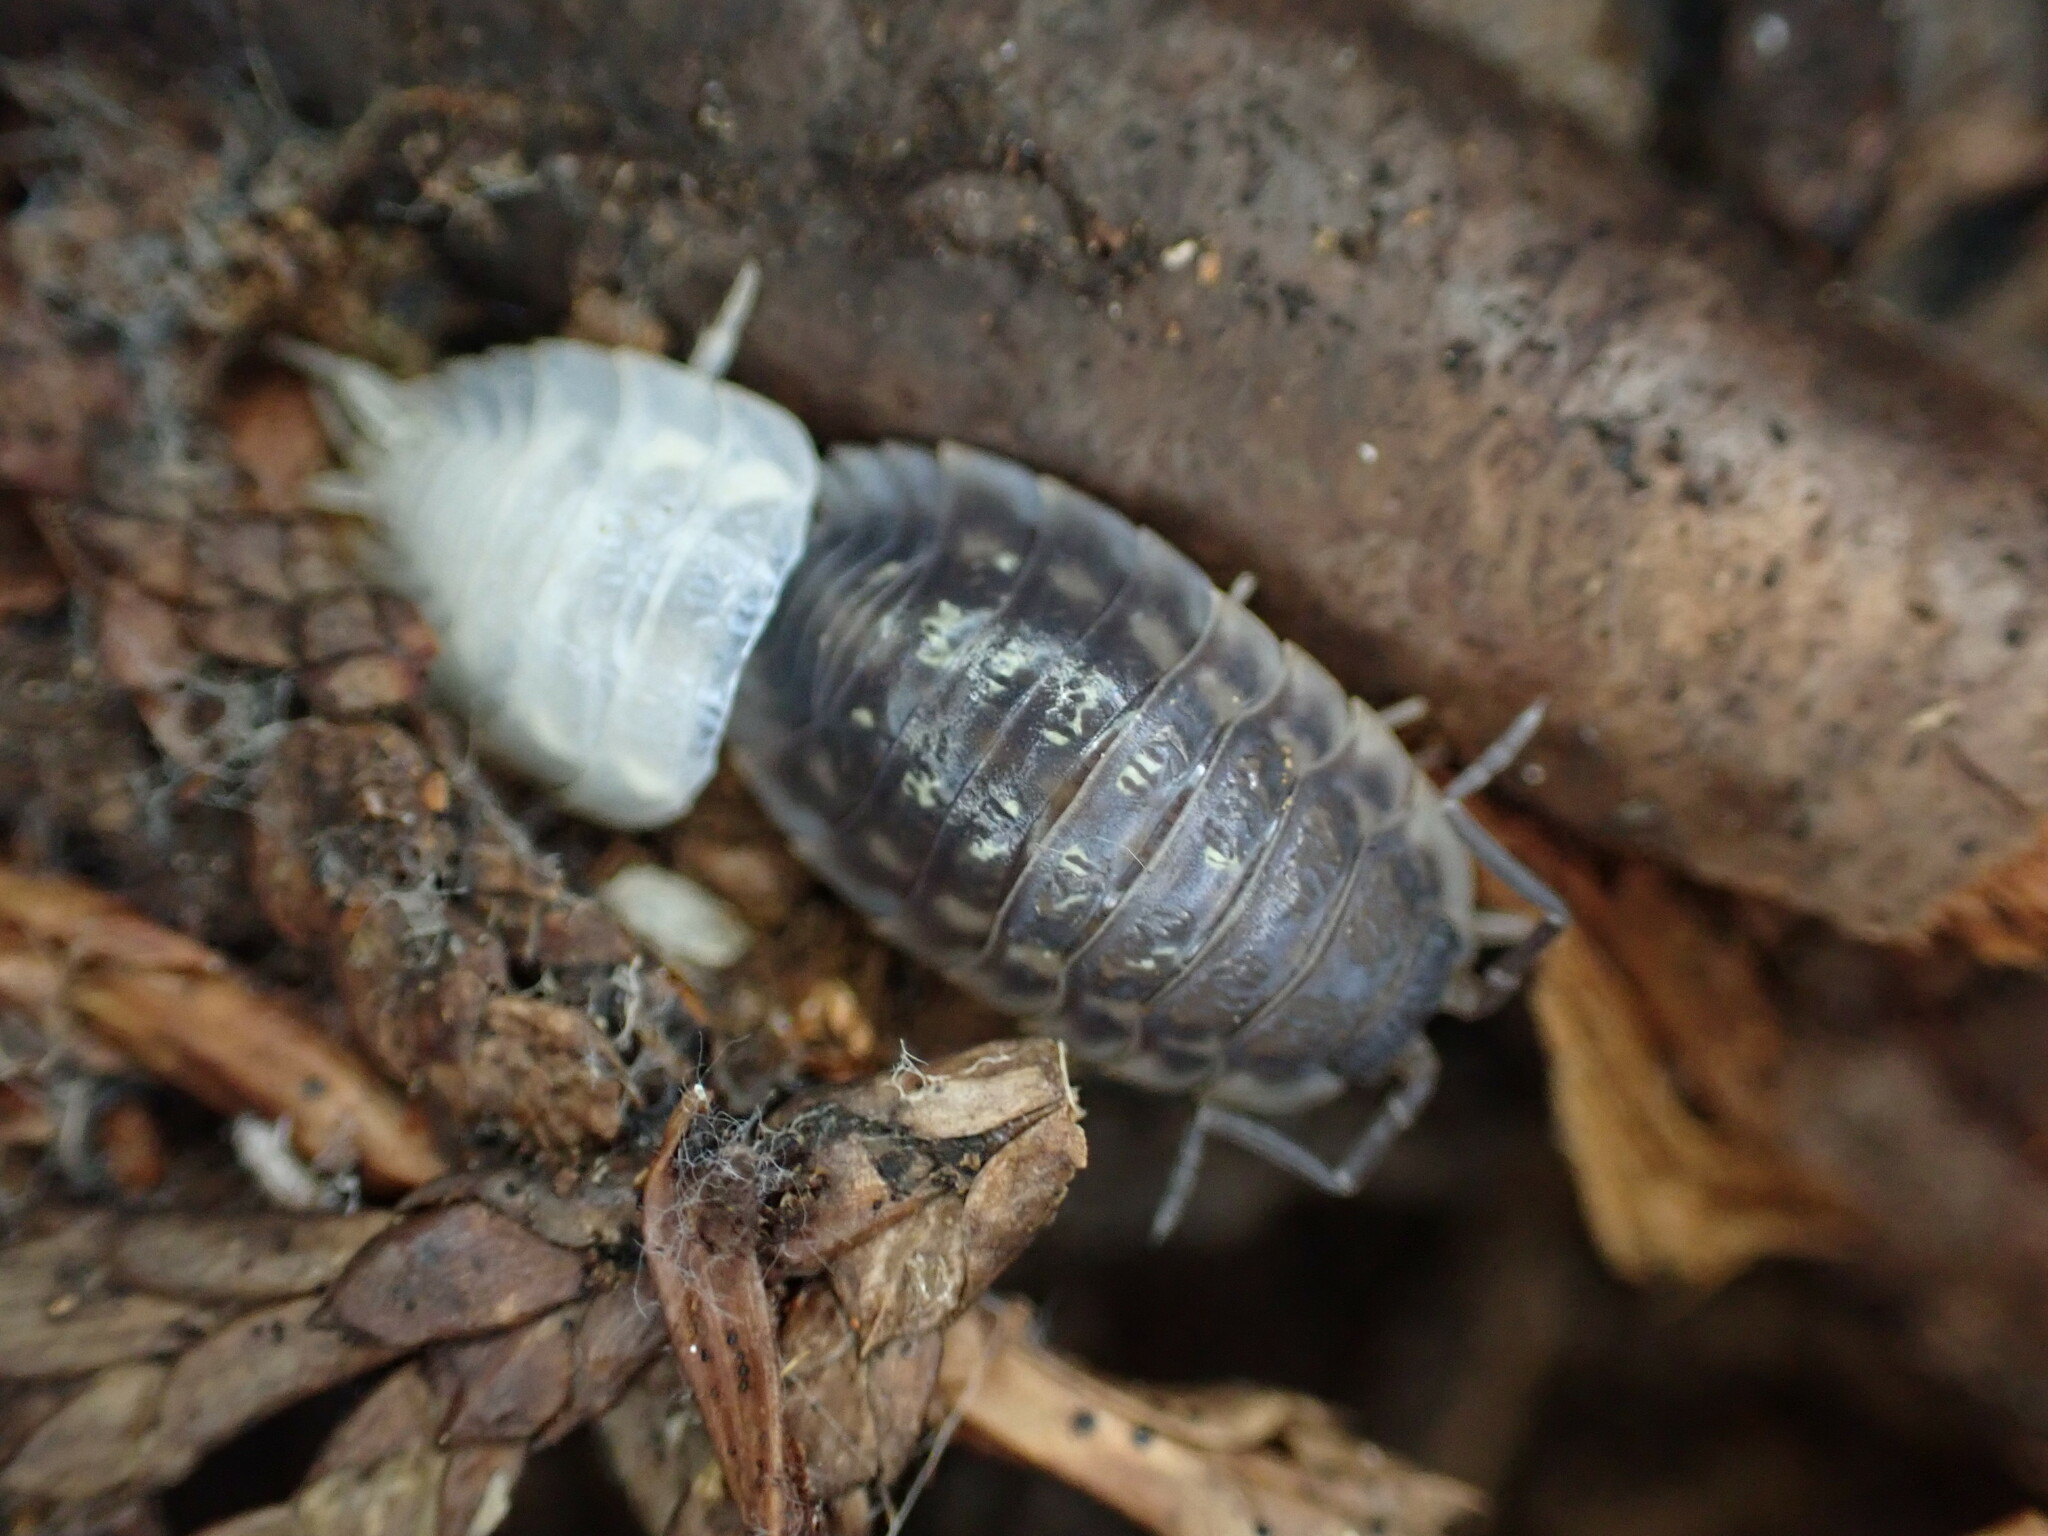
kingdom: Animalia
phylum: Arthropoda
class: Malacostraca
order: Isopoda
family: Oniscidae
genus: Oniscus
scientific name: Oniscus asellus
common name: Common shiny woodlouse
